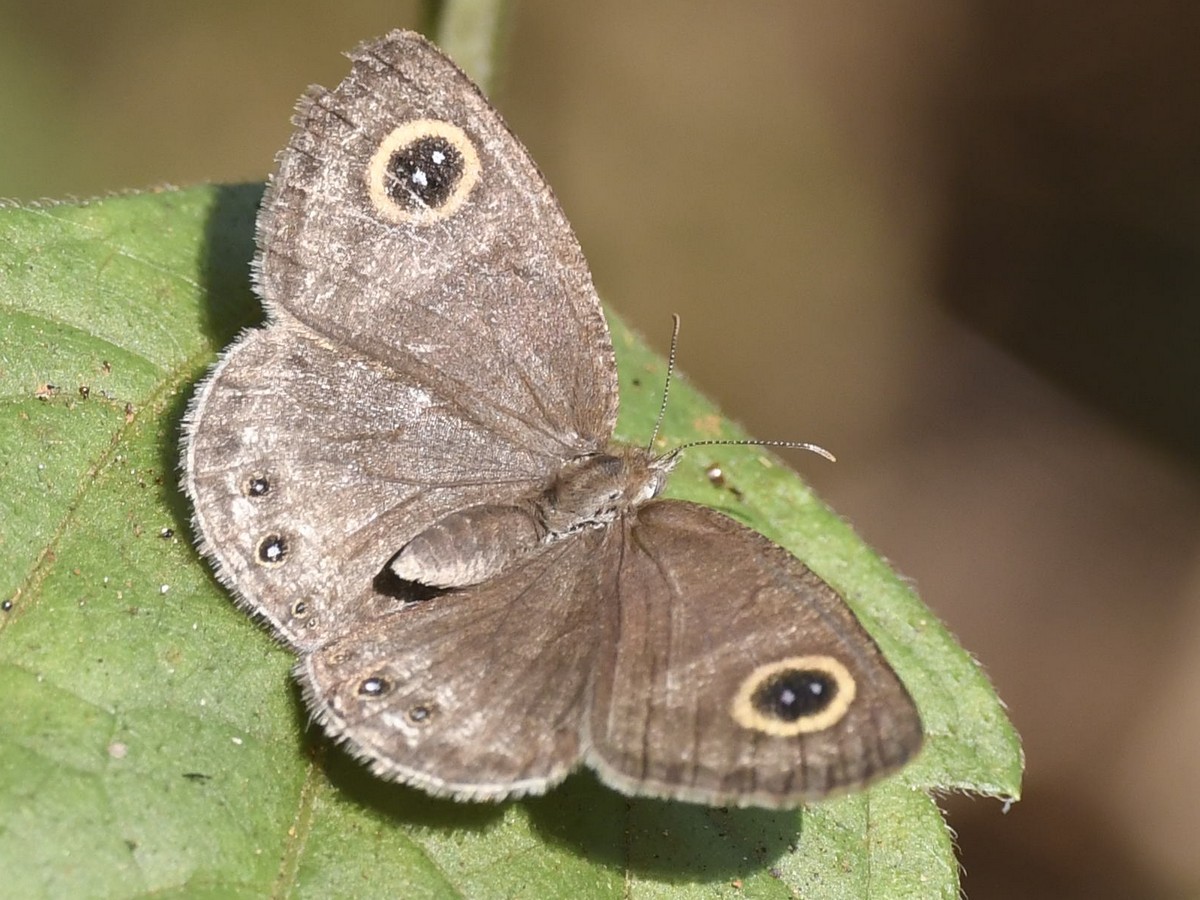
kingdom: Animalia
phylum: Arthropoda
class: Insecta
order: Lepidoptera
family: Nymphalidae
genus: Ypthima
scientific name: Ypthima huebneri
